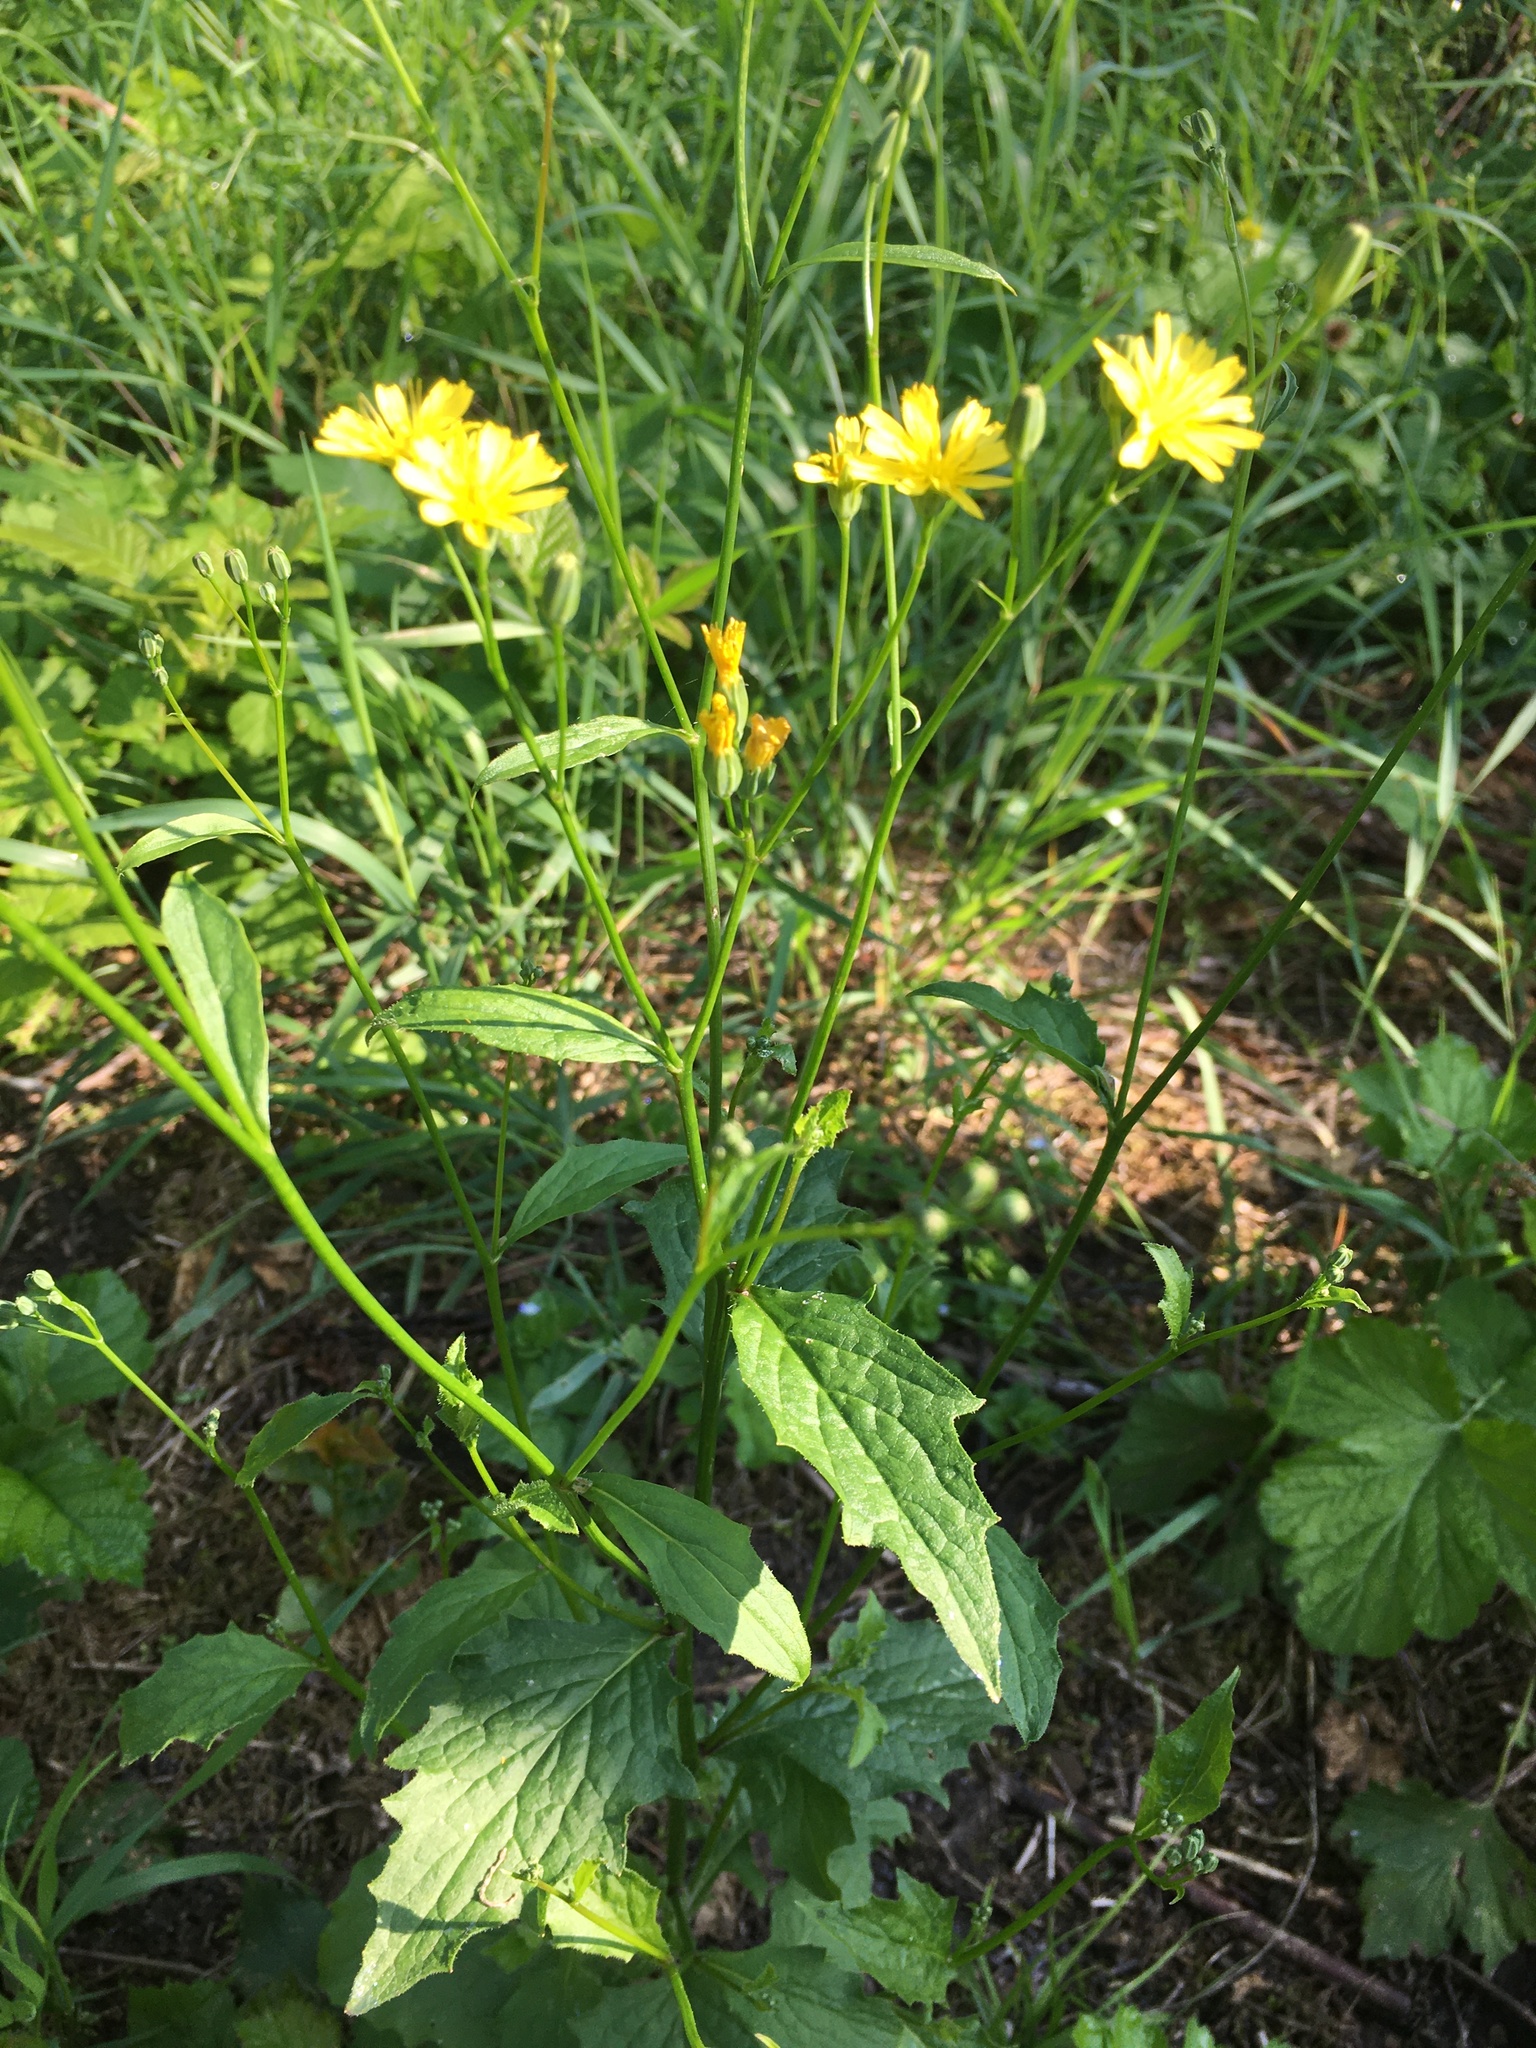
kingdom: Plantae
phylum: Tracheophyta
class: Magnoliopsida
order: Asterales
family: Asteraceae
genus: Lapsana
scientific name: Lapsana communis
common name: Nipplewort
